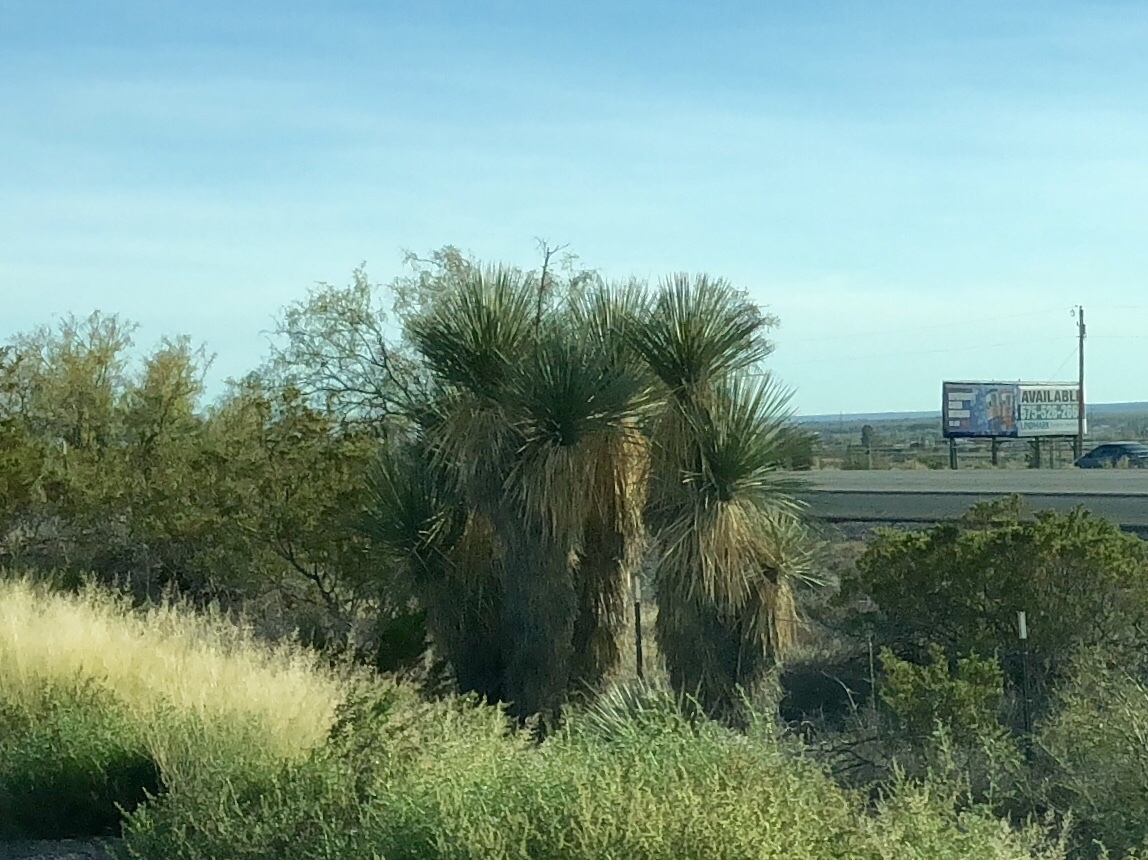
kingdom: Plantae
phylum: Tracheophyta
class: Liliopsida
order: Asparagales
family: Asparagaceae
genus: Yucca
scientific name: Yucca elata
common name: Palmella
